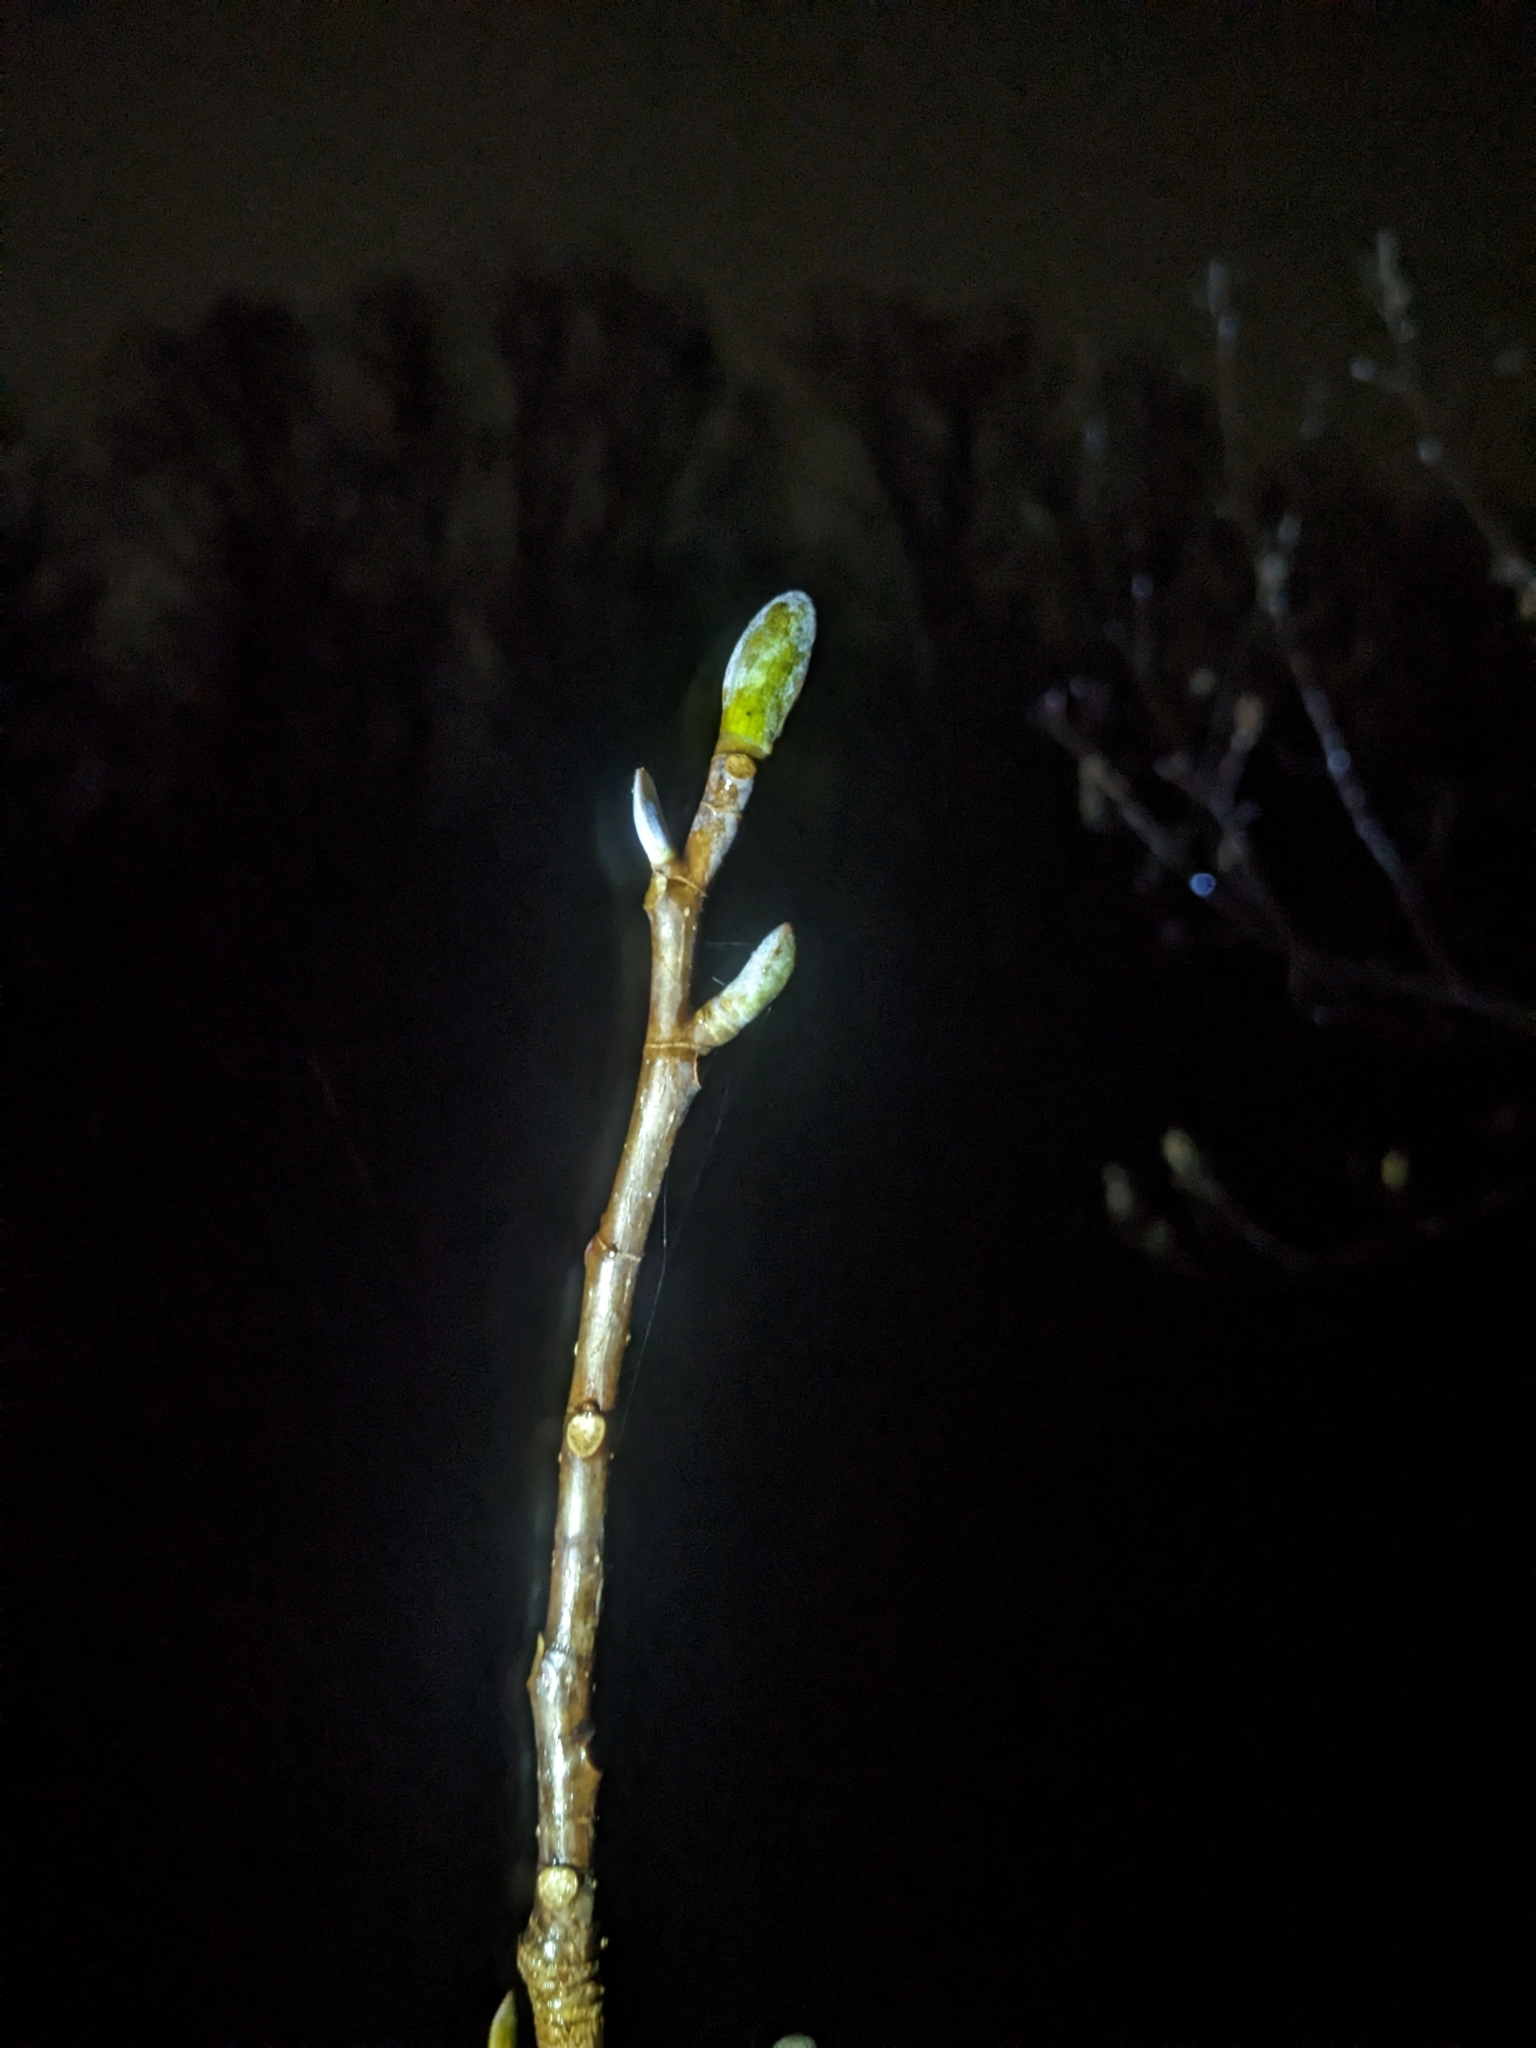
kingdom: Plantae
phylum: Tracheophyta
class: Magnoliopsida
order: Magnoliales
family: Magnoliaceae
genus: Liriodendron
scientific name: Liriodendron tulipifera
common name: Tulip tree
